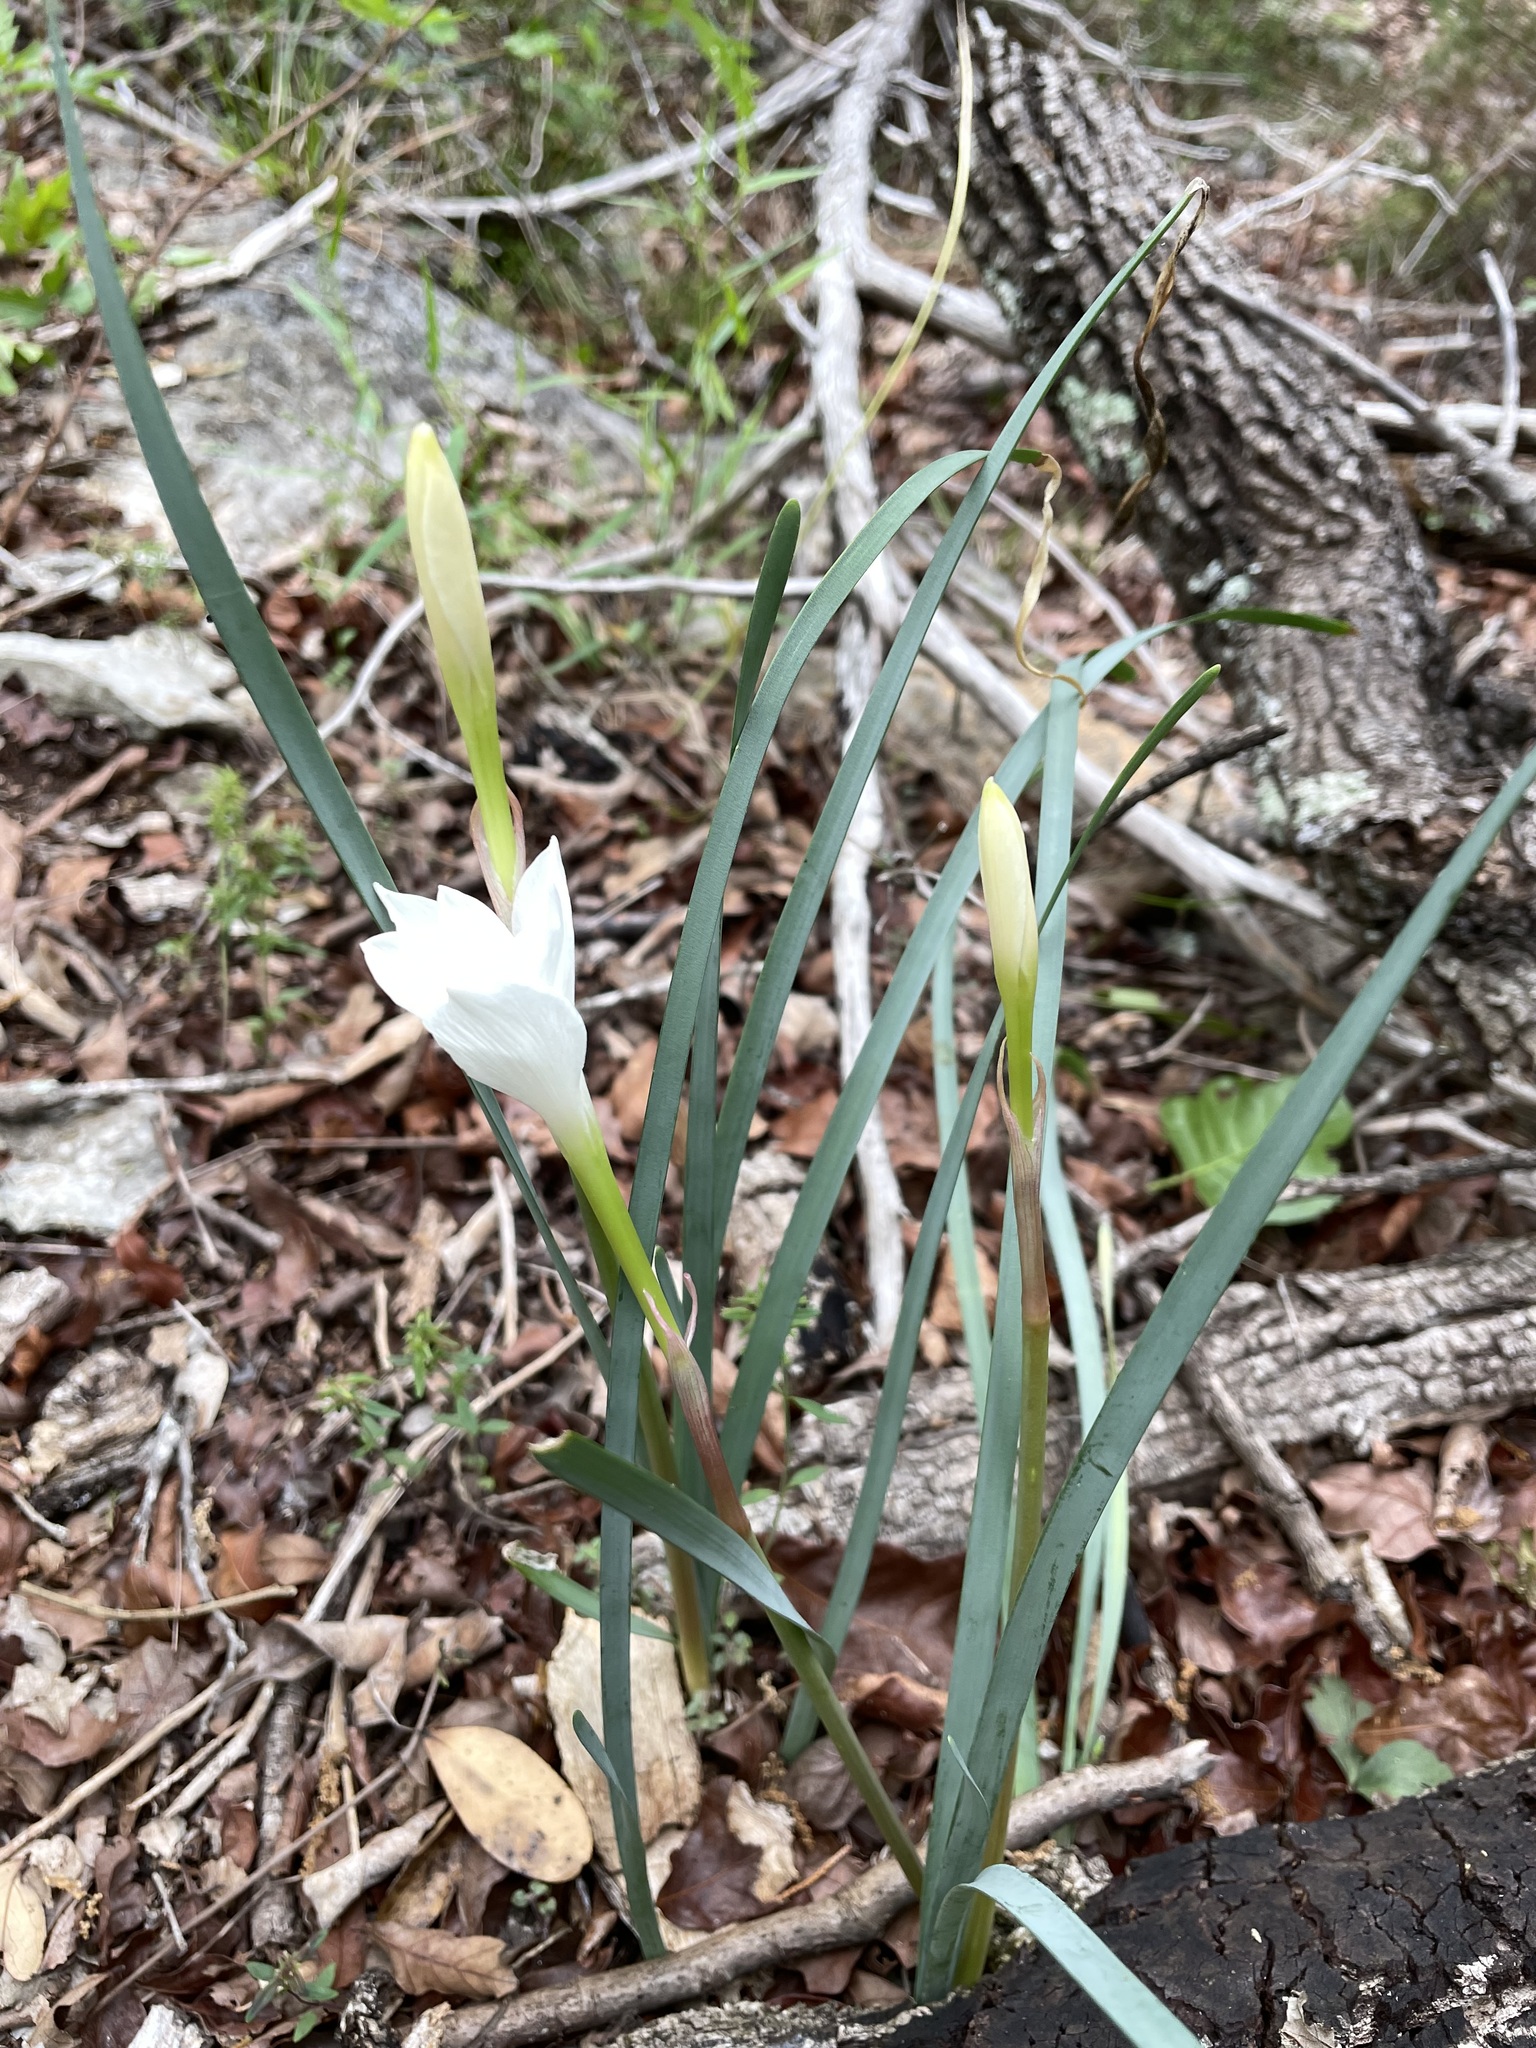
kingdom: Plantae
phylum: Tracheophyta
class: Liliopsida
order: Asparagales
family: Amaryllidaceae
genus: Zephyranthes
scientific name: Zephyranthes drummondii
